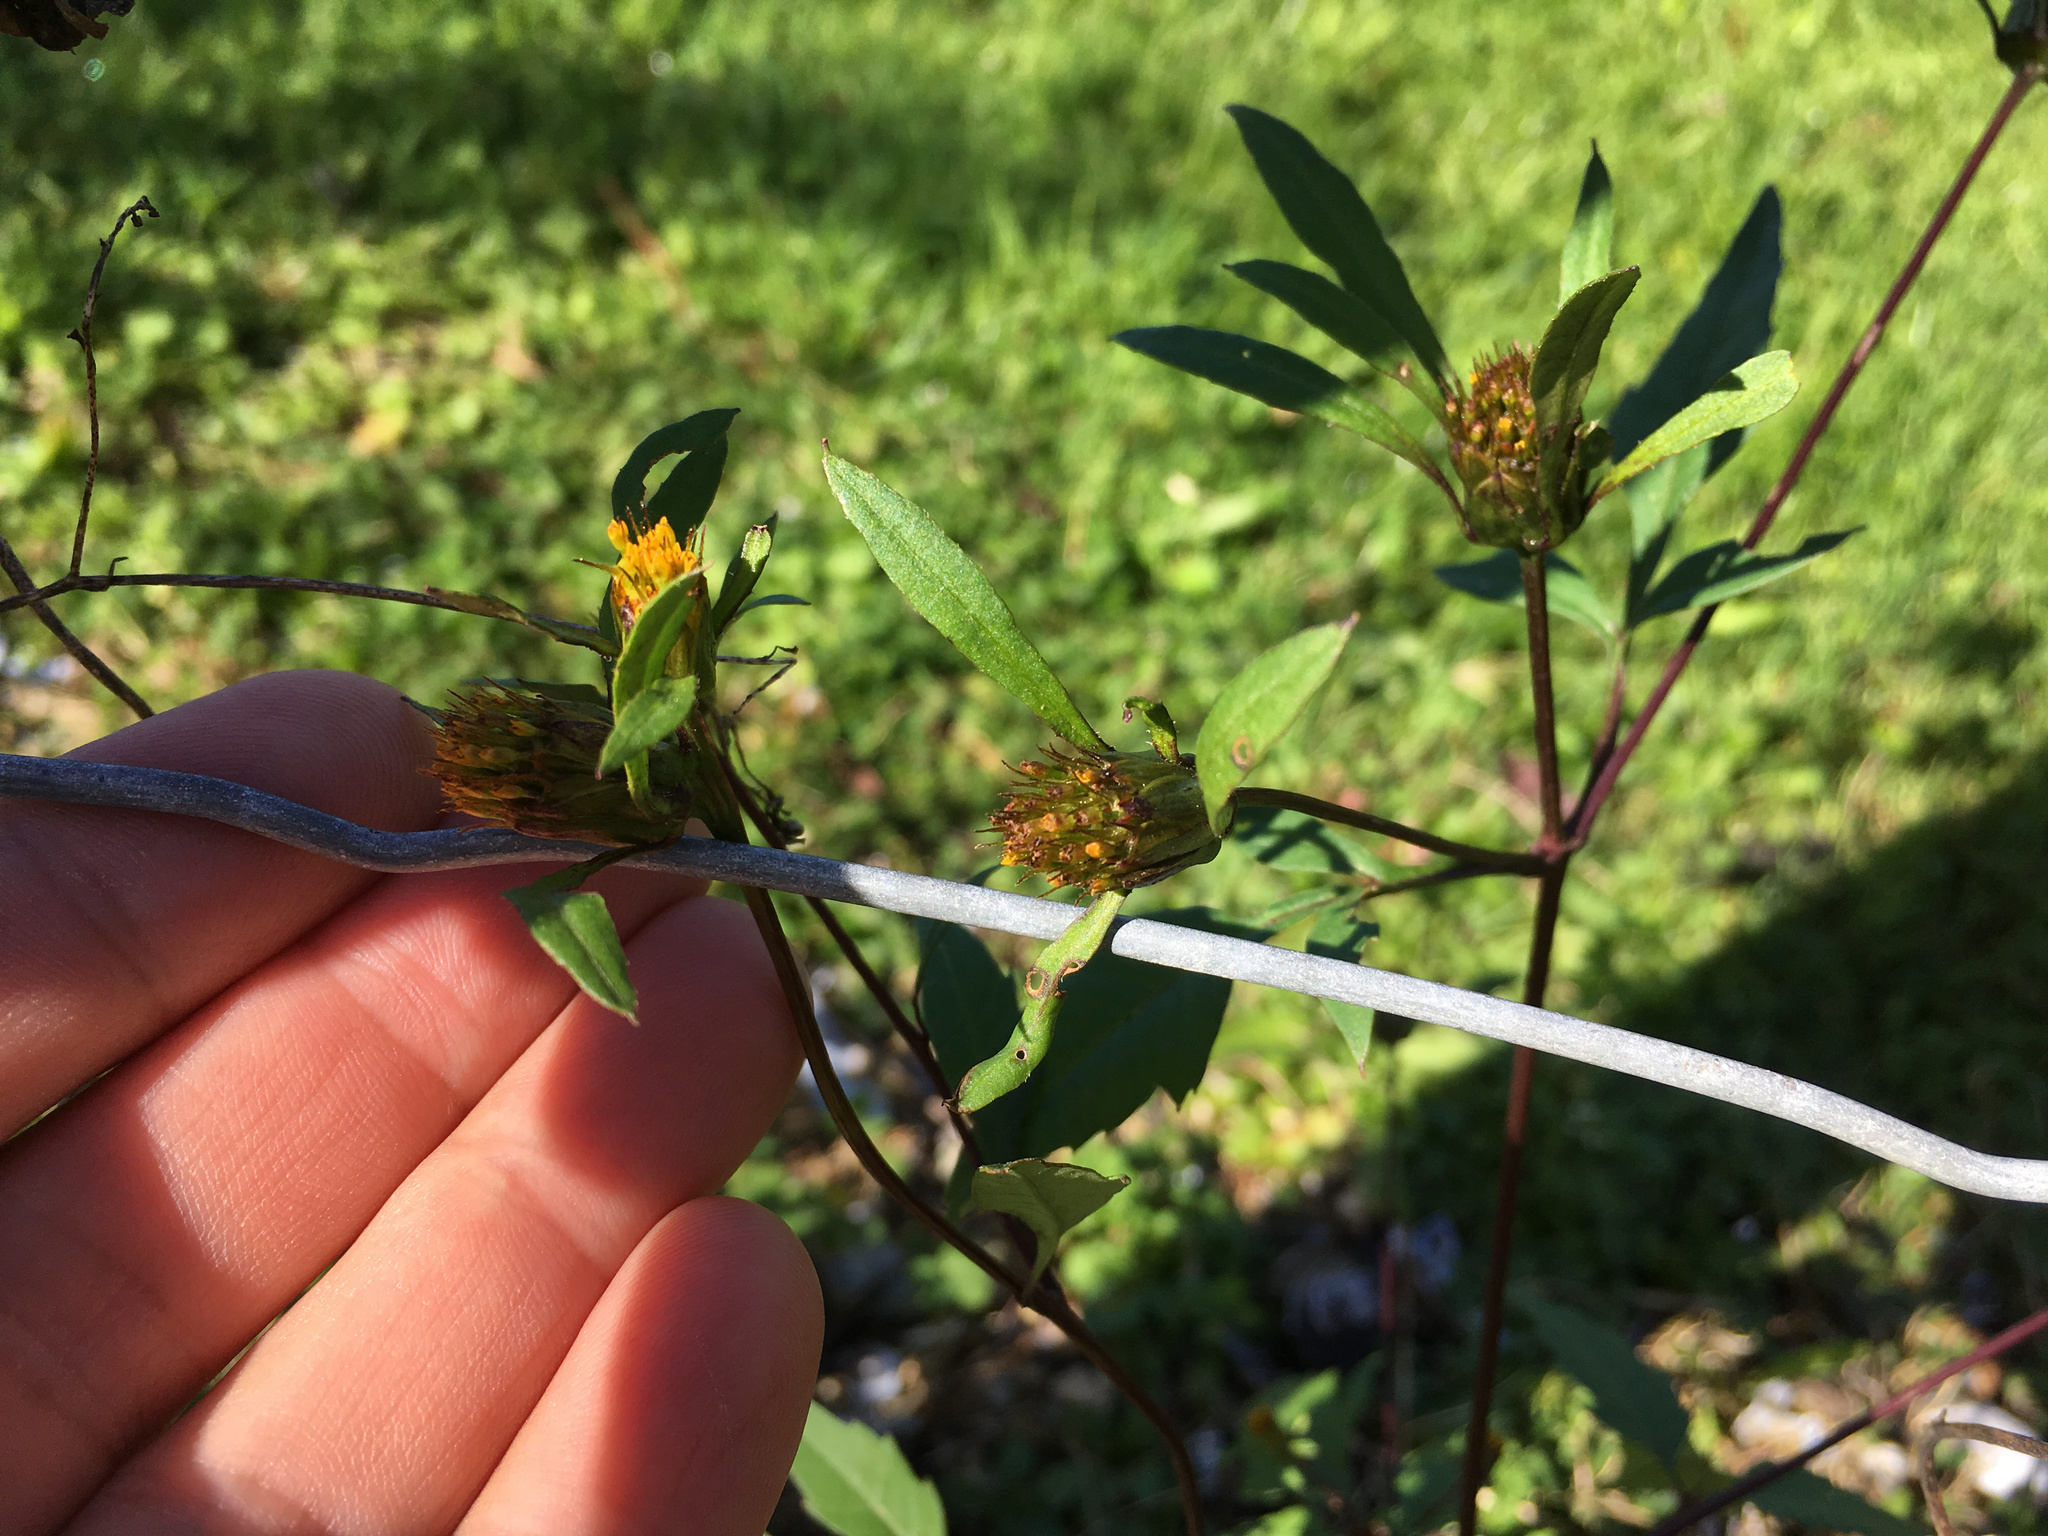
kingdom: Plantae
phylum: Tracheophyta
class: Magnoliopsida
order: Asterales
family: Asteraceae
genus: Bidens
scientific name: Bidens frondosa
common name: Beggarticks
